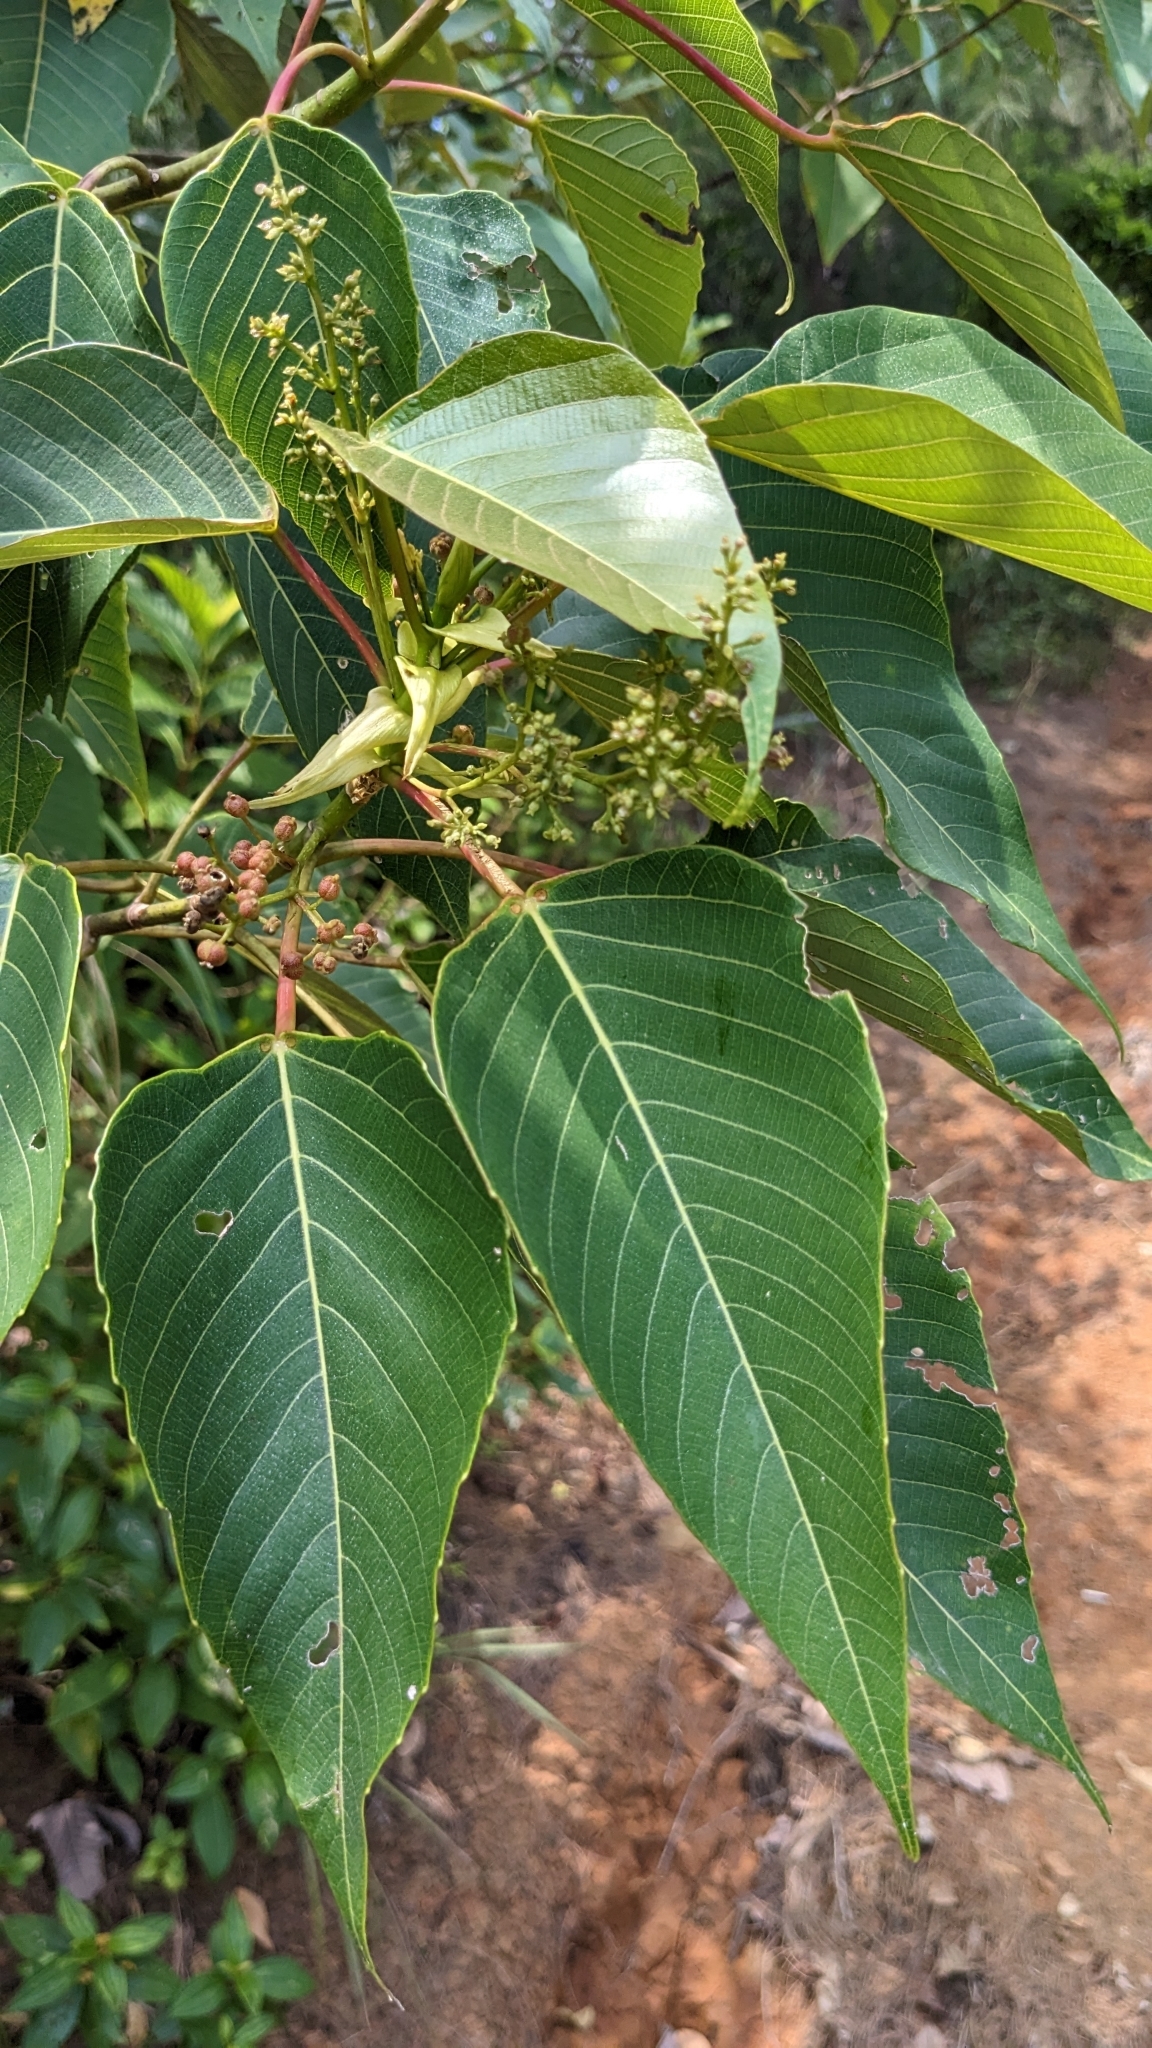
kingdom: Plantae
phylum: Tracheophyta
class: Magnoliopsida
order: Malpighiales
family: Euphorbiaceae
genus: Macaranga
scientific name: Macaranga sinensis
